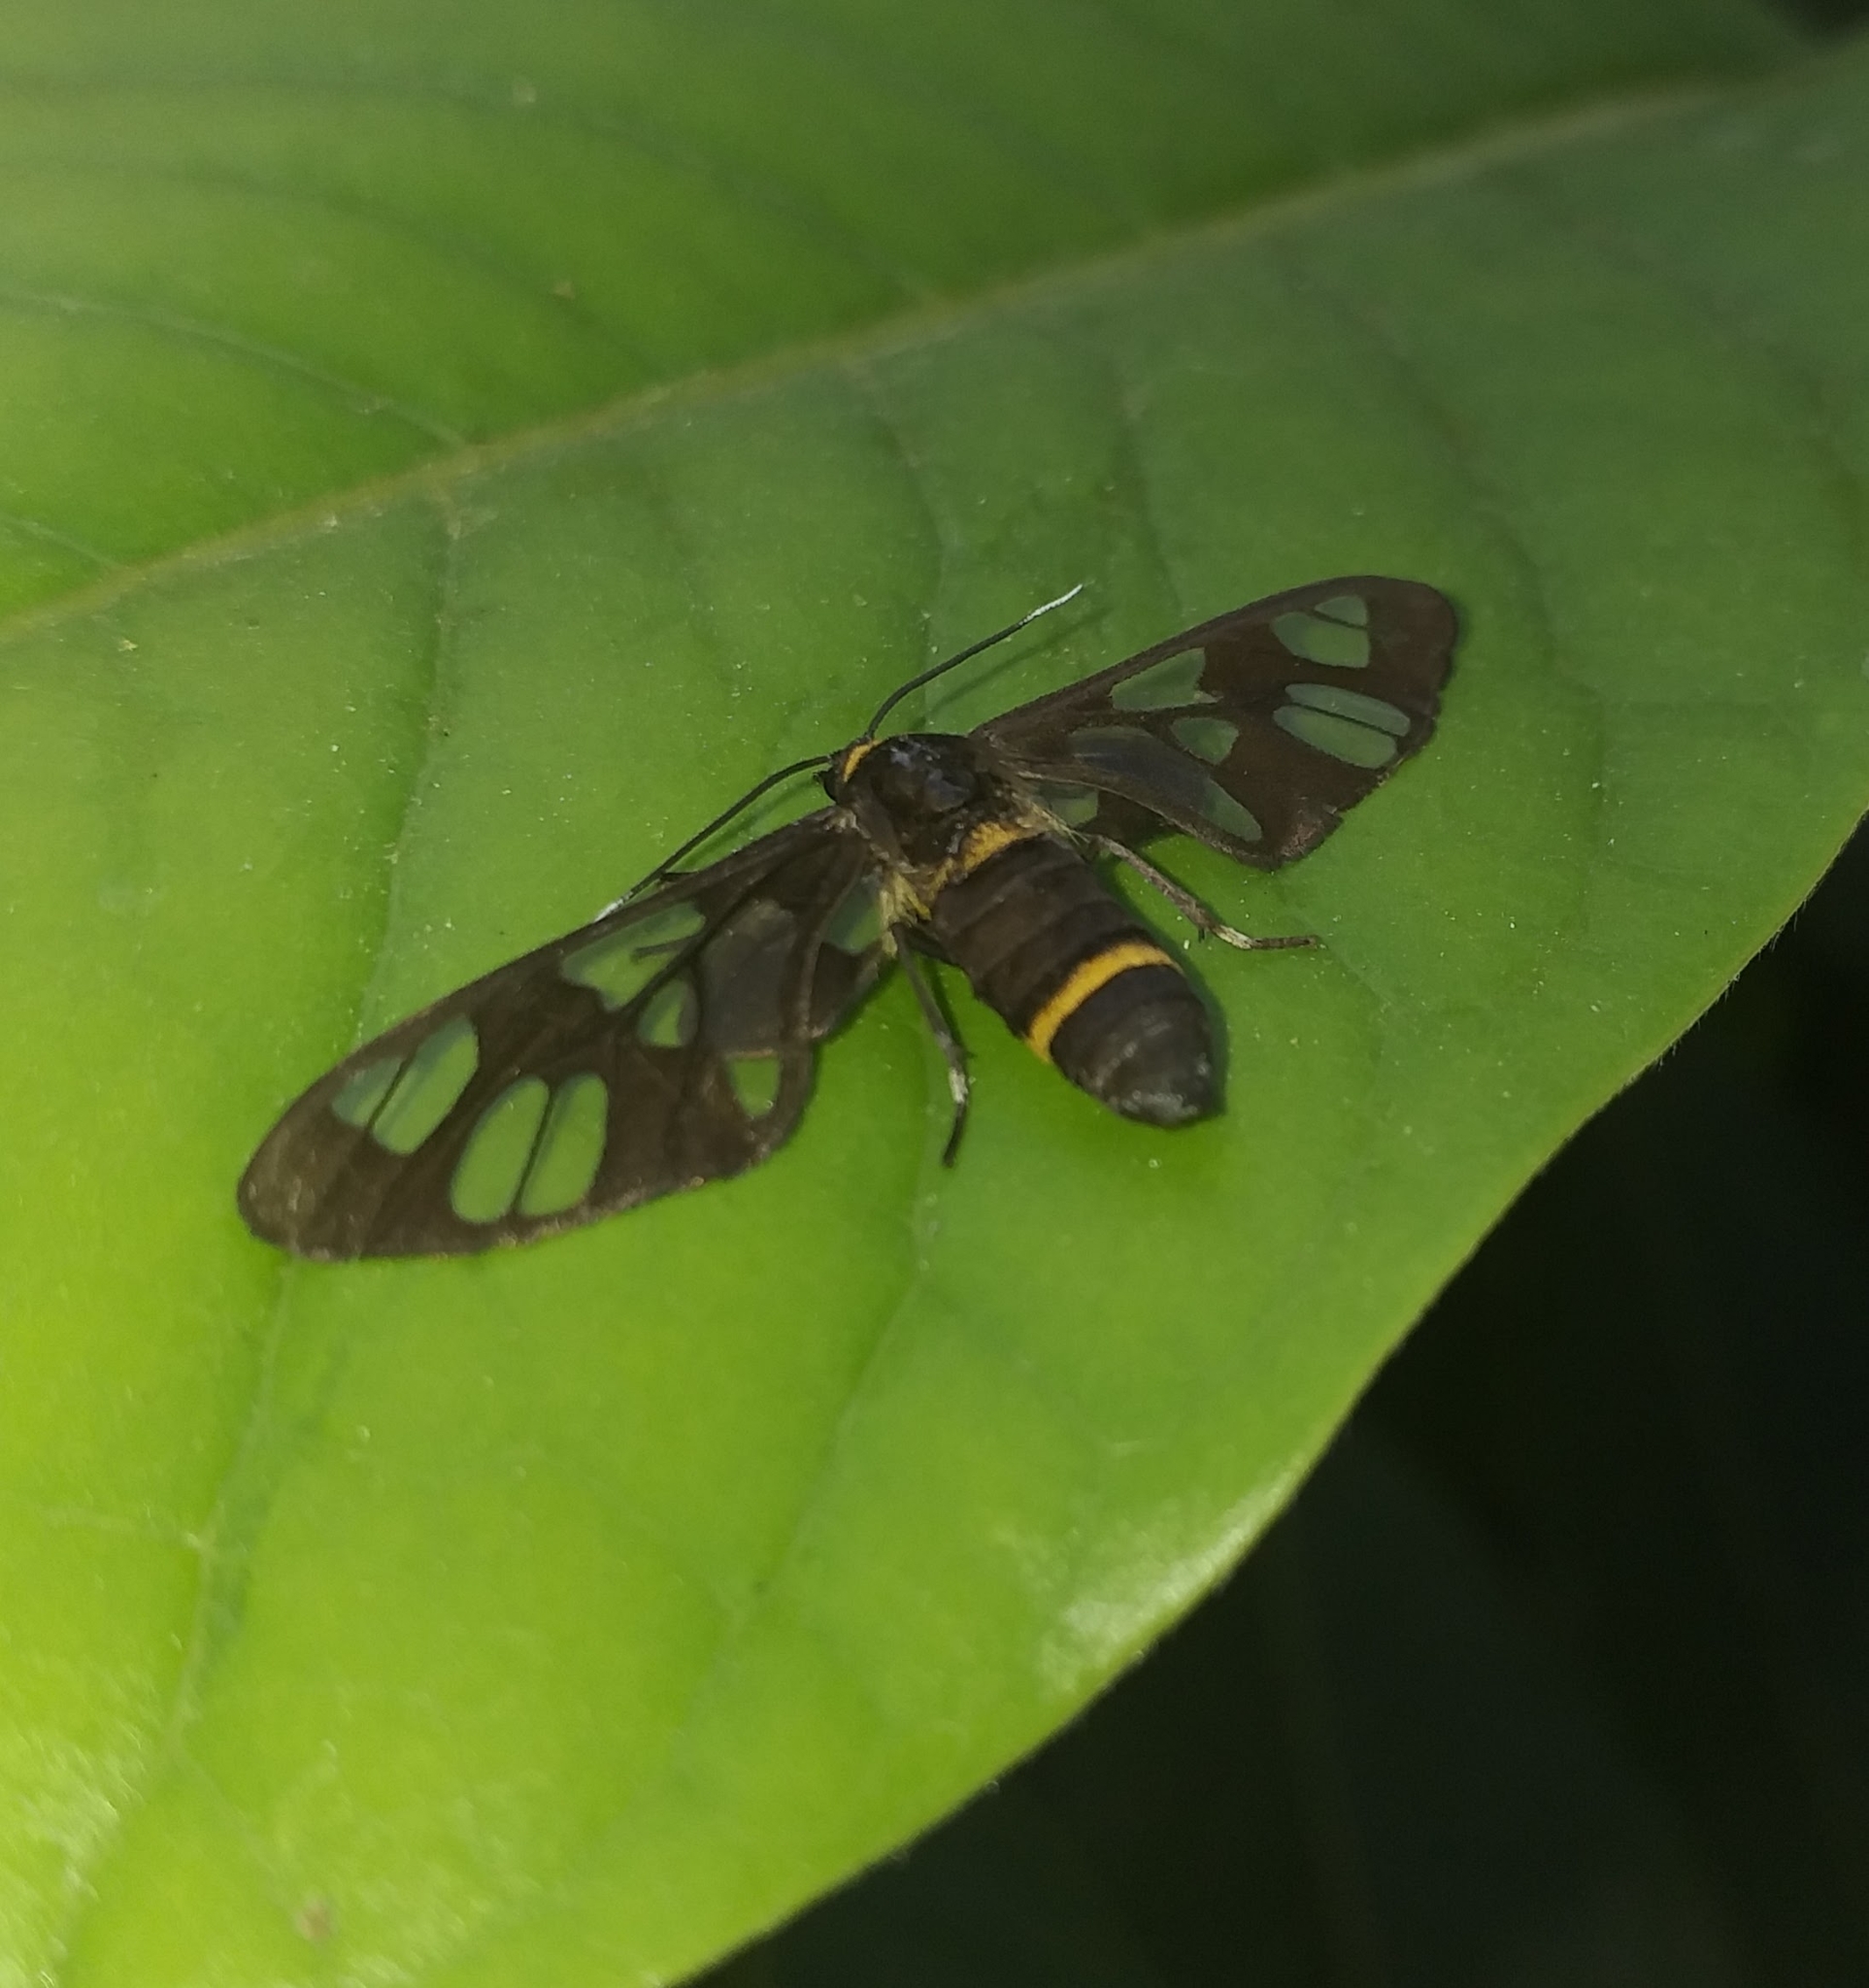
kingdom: Animalia
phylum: Arthropoda
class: Insecta
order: Lepidoptera
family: Erebidae
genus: Syntomoides
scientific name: Syntomoides imaon
